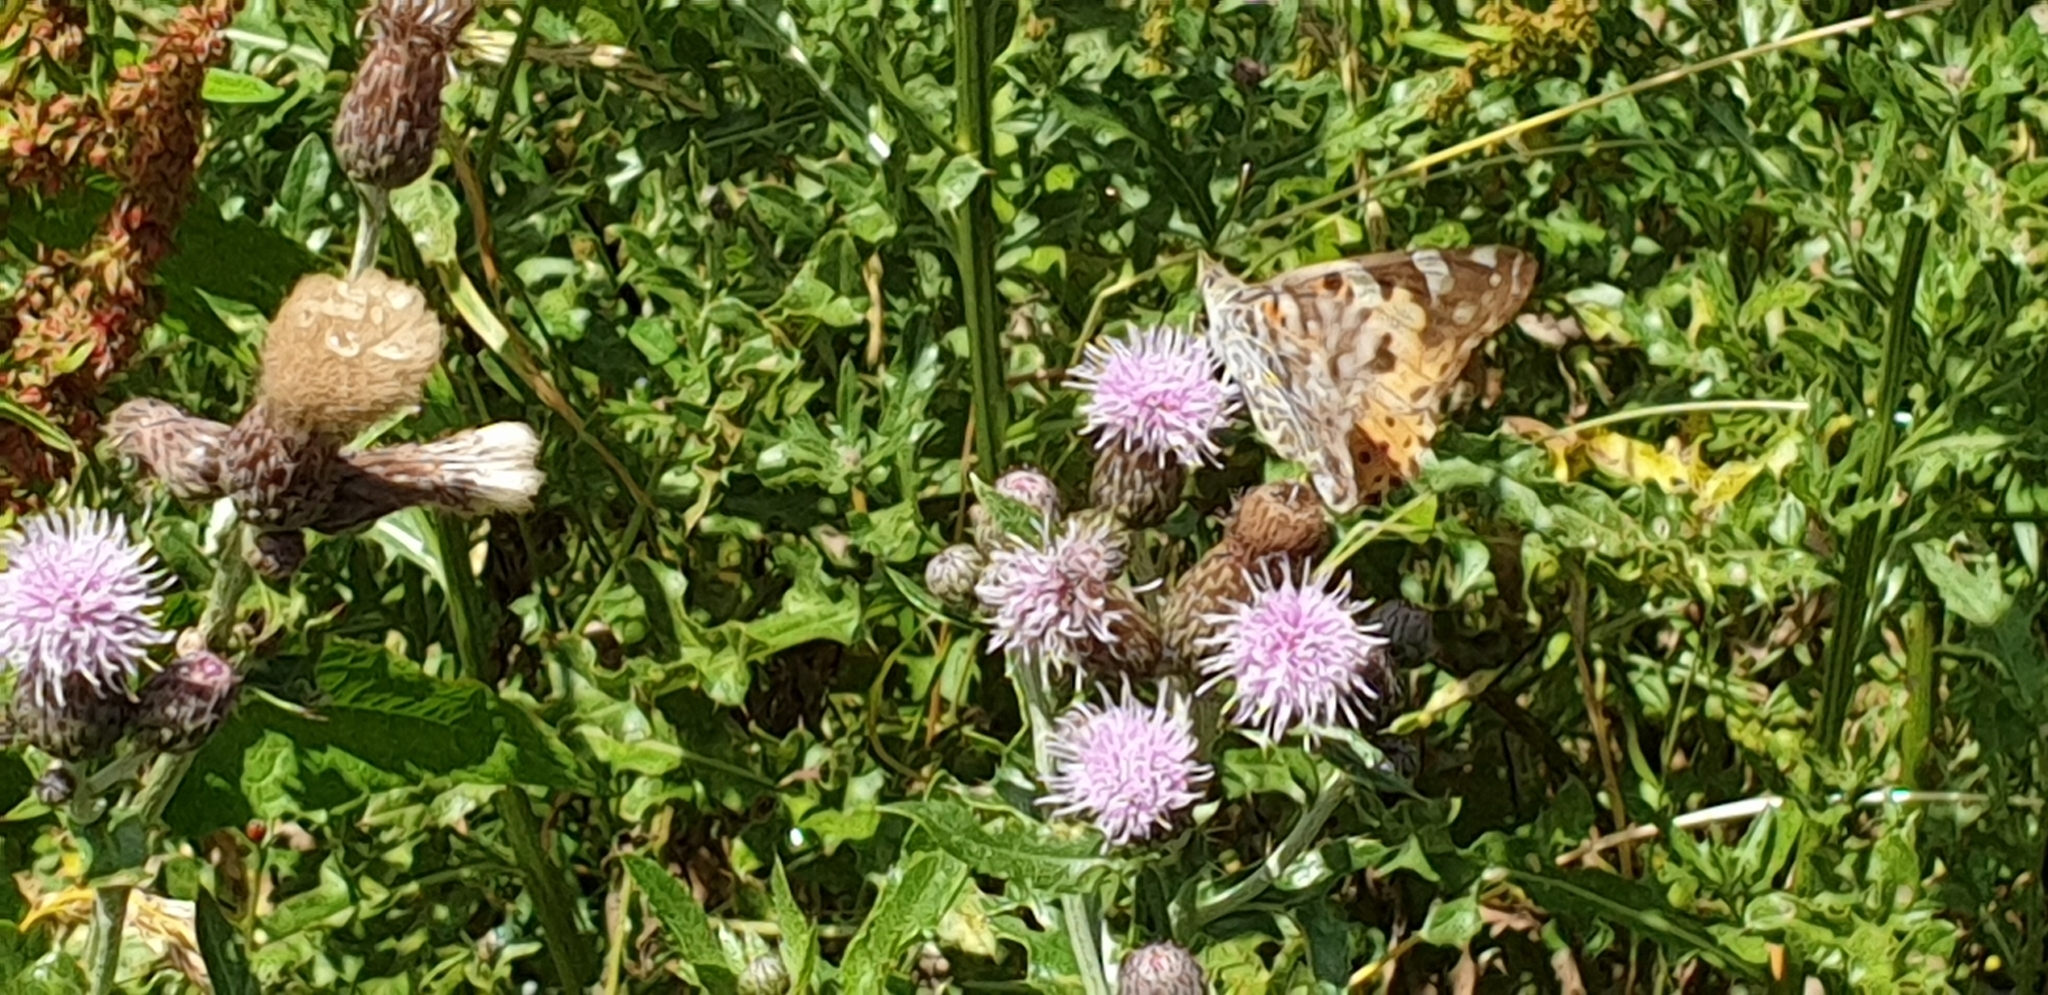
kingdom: Animalia
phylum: Arthropoda
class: Insecta
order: Lepidoptera
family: Nymphalidae
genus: Vanessa
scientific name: Vanessa cardui
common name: Painted lady
